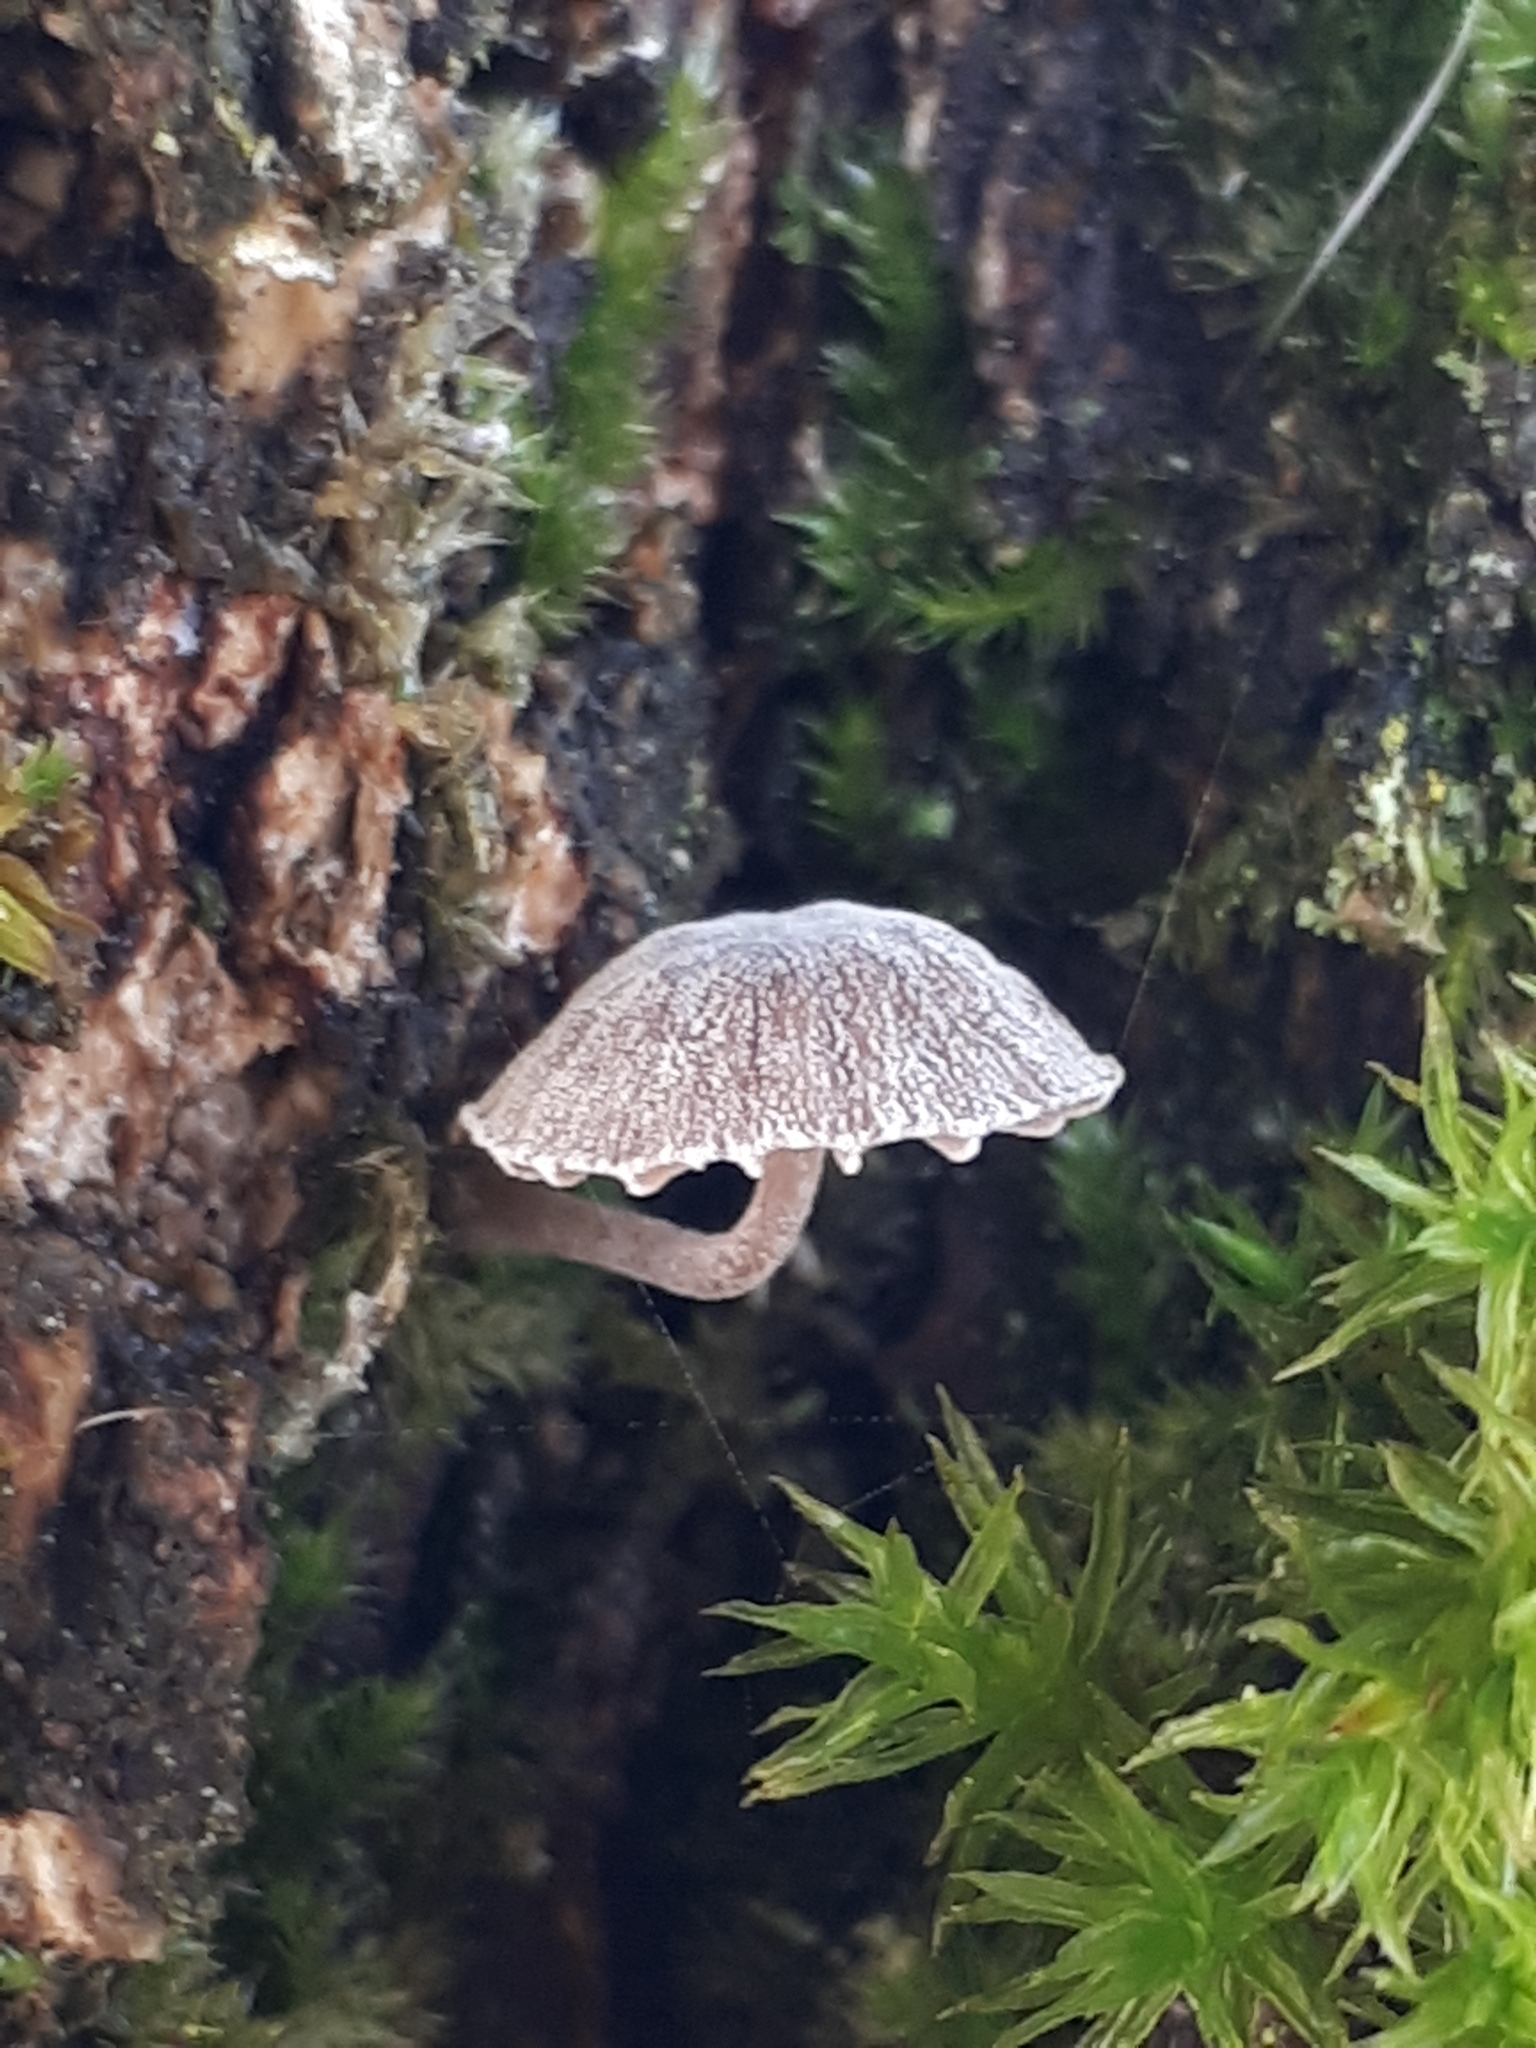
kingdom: Fungi
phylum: Basidiomycota
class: Agaricomycetes
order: Agaricales
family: Mycenaceae
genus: Mycena
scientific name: Mycena corticola
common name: Bark mycena
